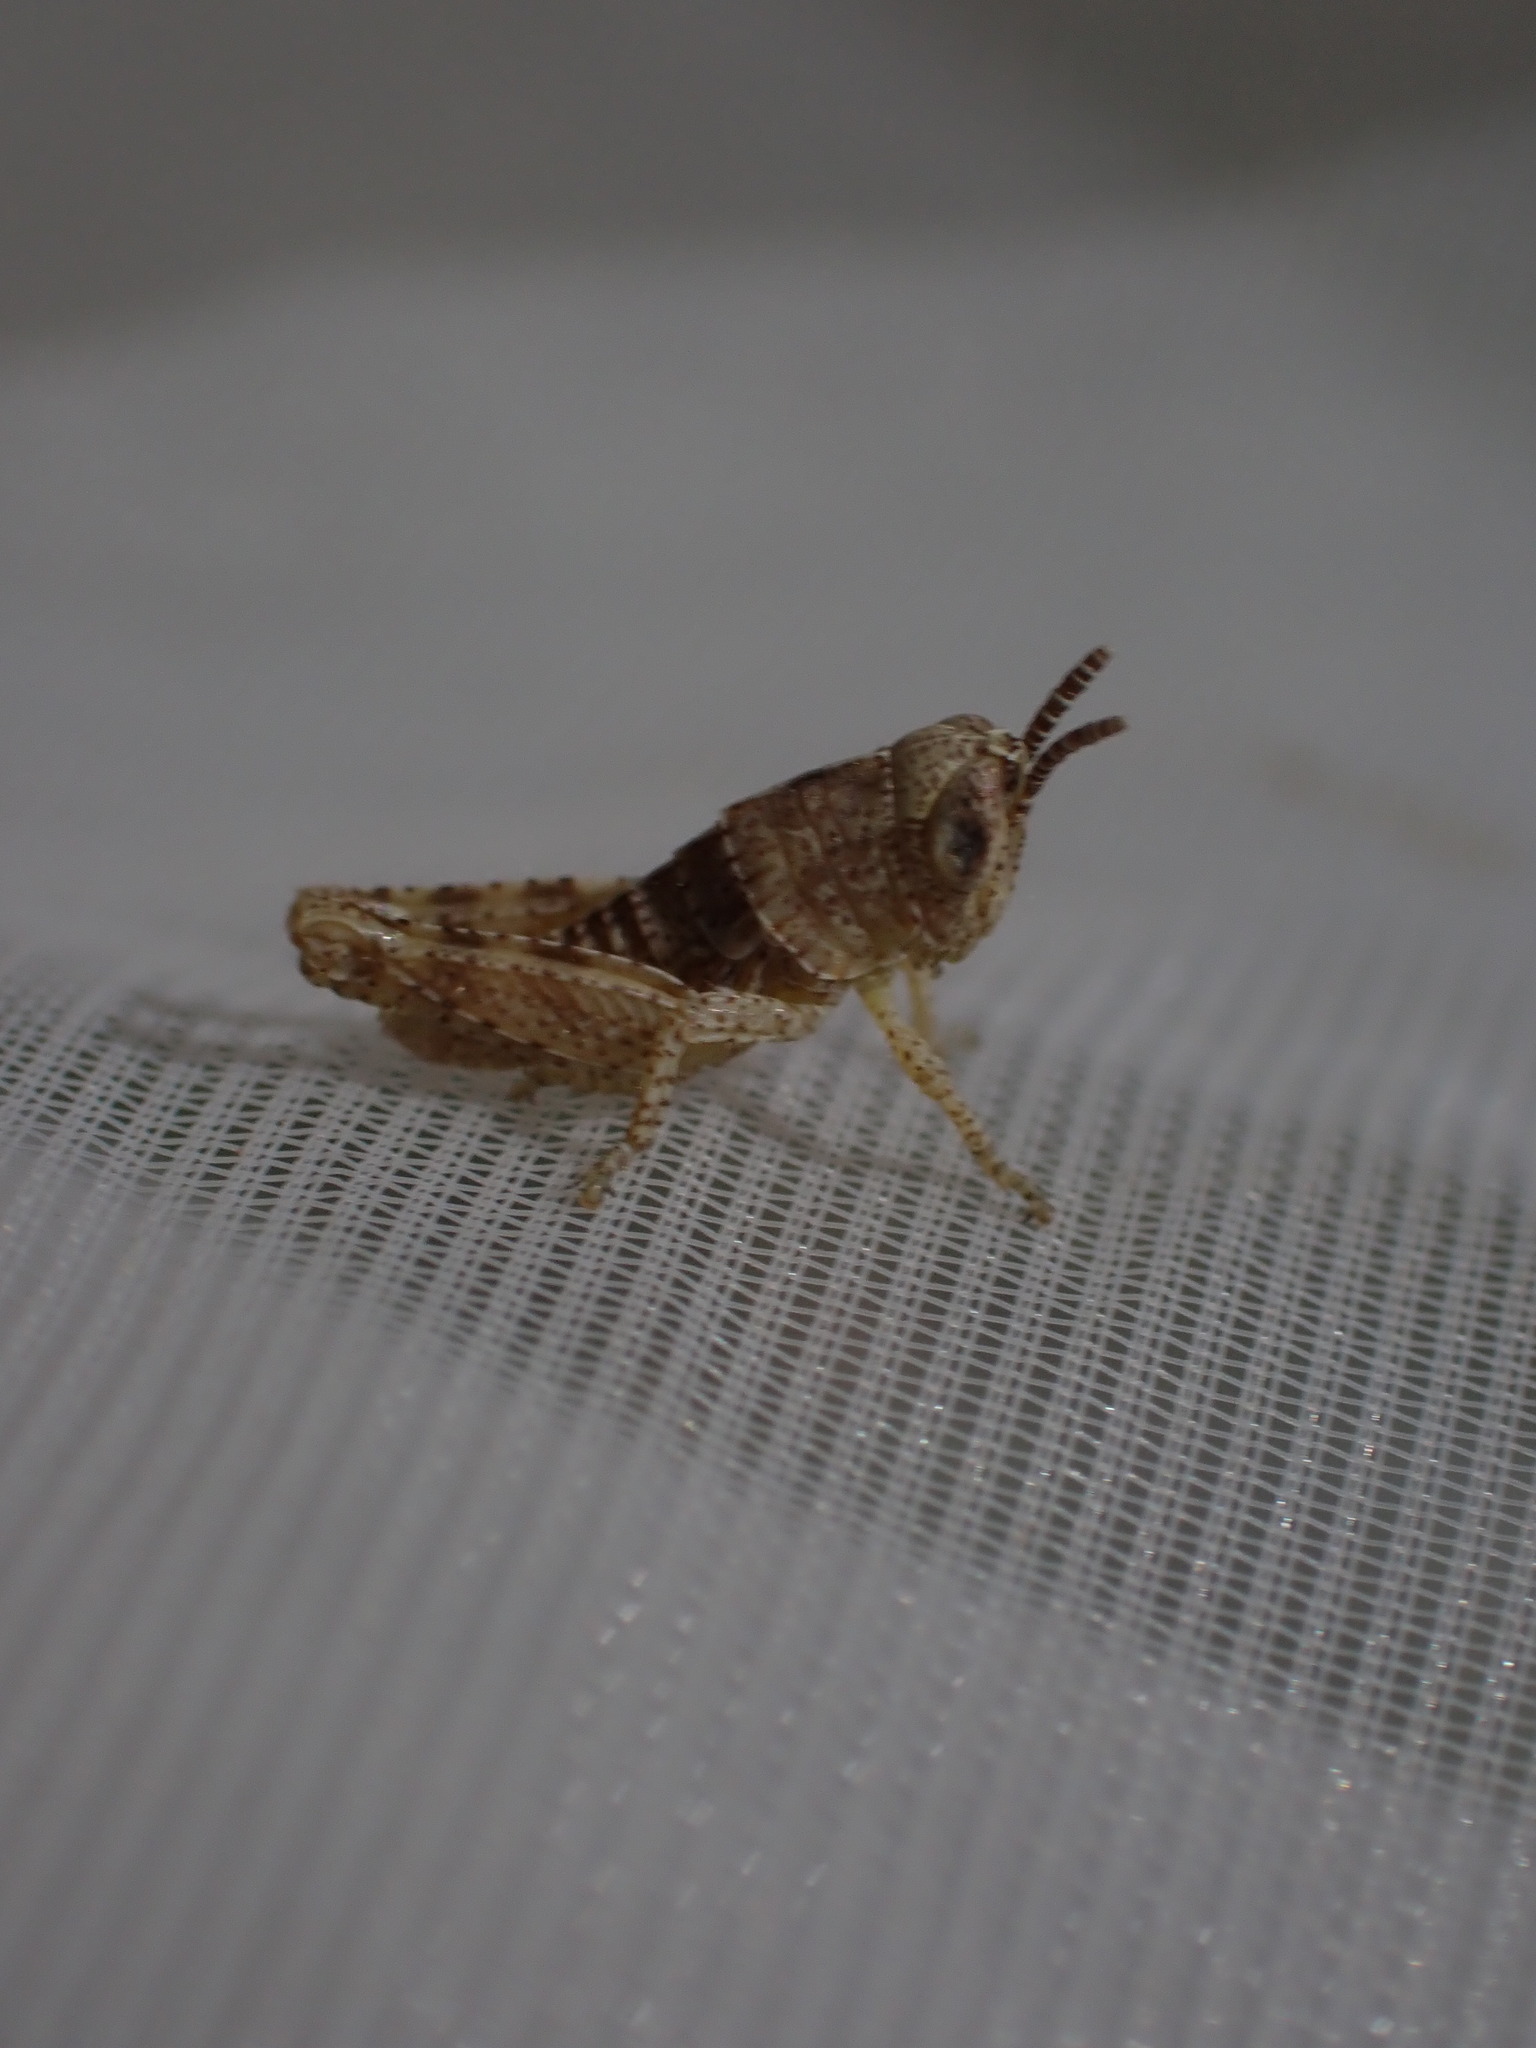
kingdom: Animalia
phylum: Arthropoda
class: Insecta
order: Orthoptera
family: Acrididae
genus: Pezotettix
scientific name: Pezotettix giornae
